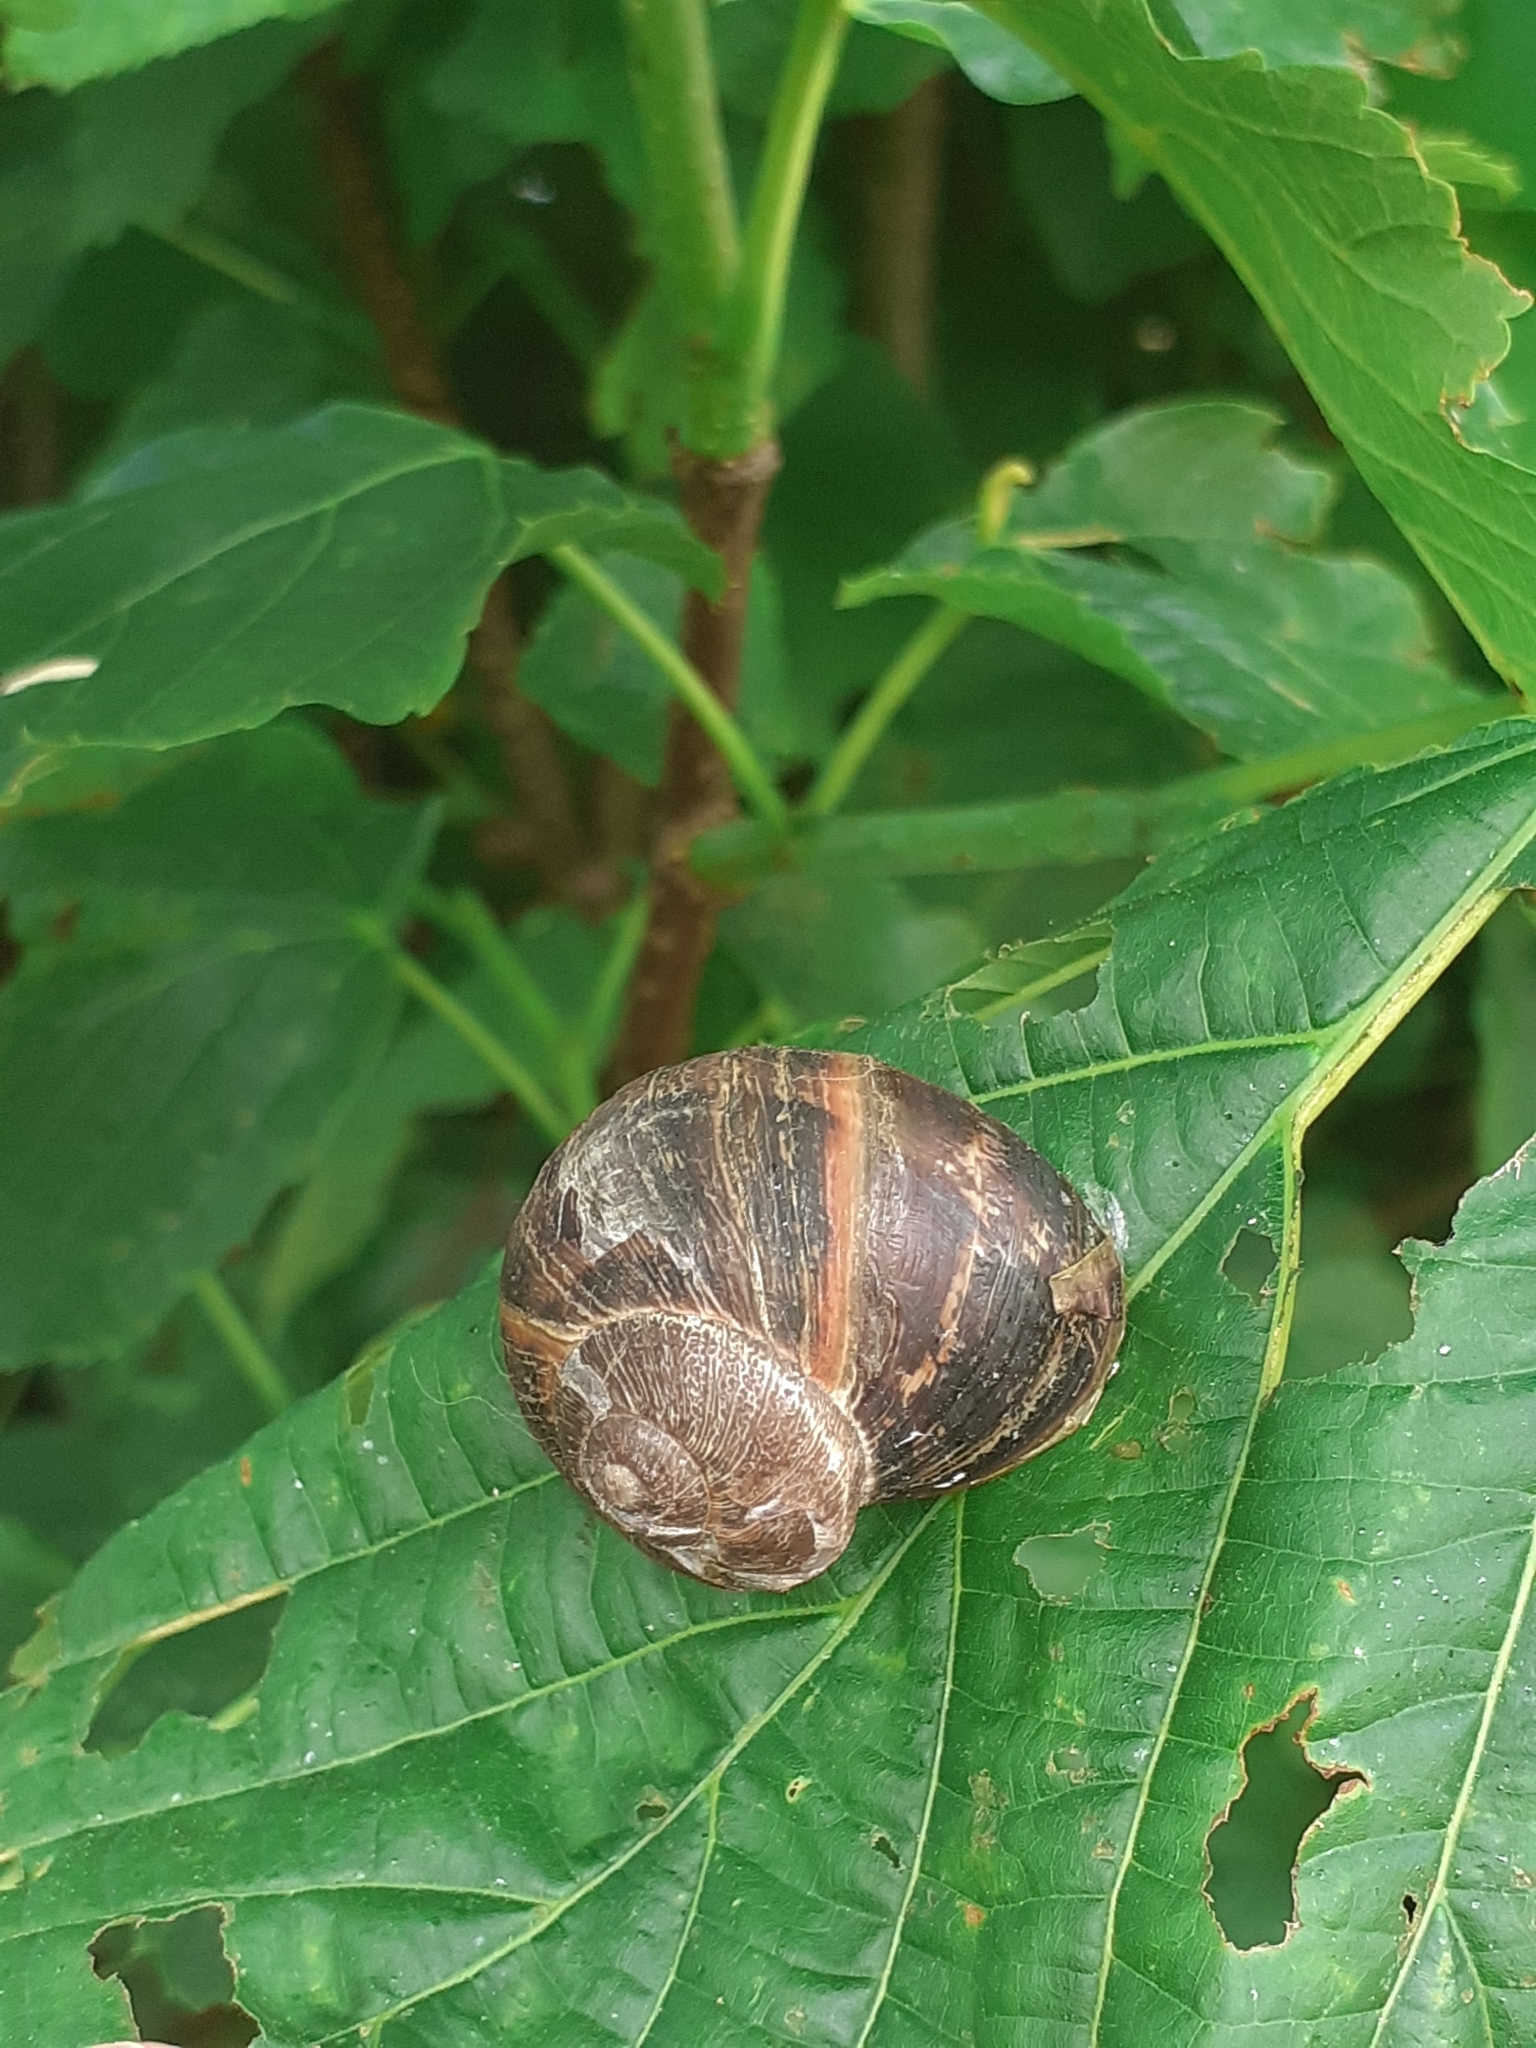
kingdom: Animalia
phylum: Mollusca
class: Gastropoda
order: Stylommatophora
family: Helicidae
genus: Cornu
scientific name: Cornu aspersum
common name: Brown garden snail
